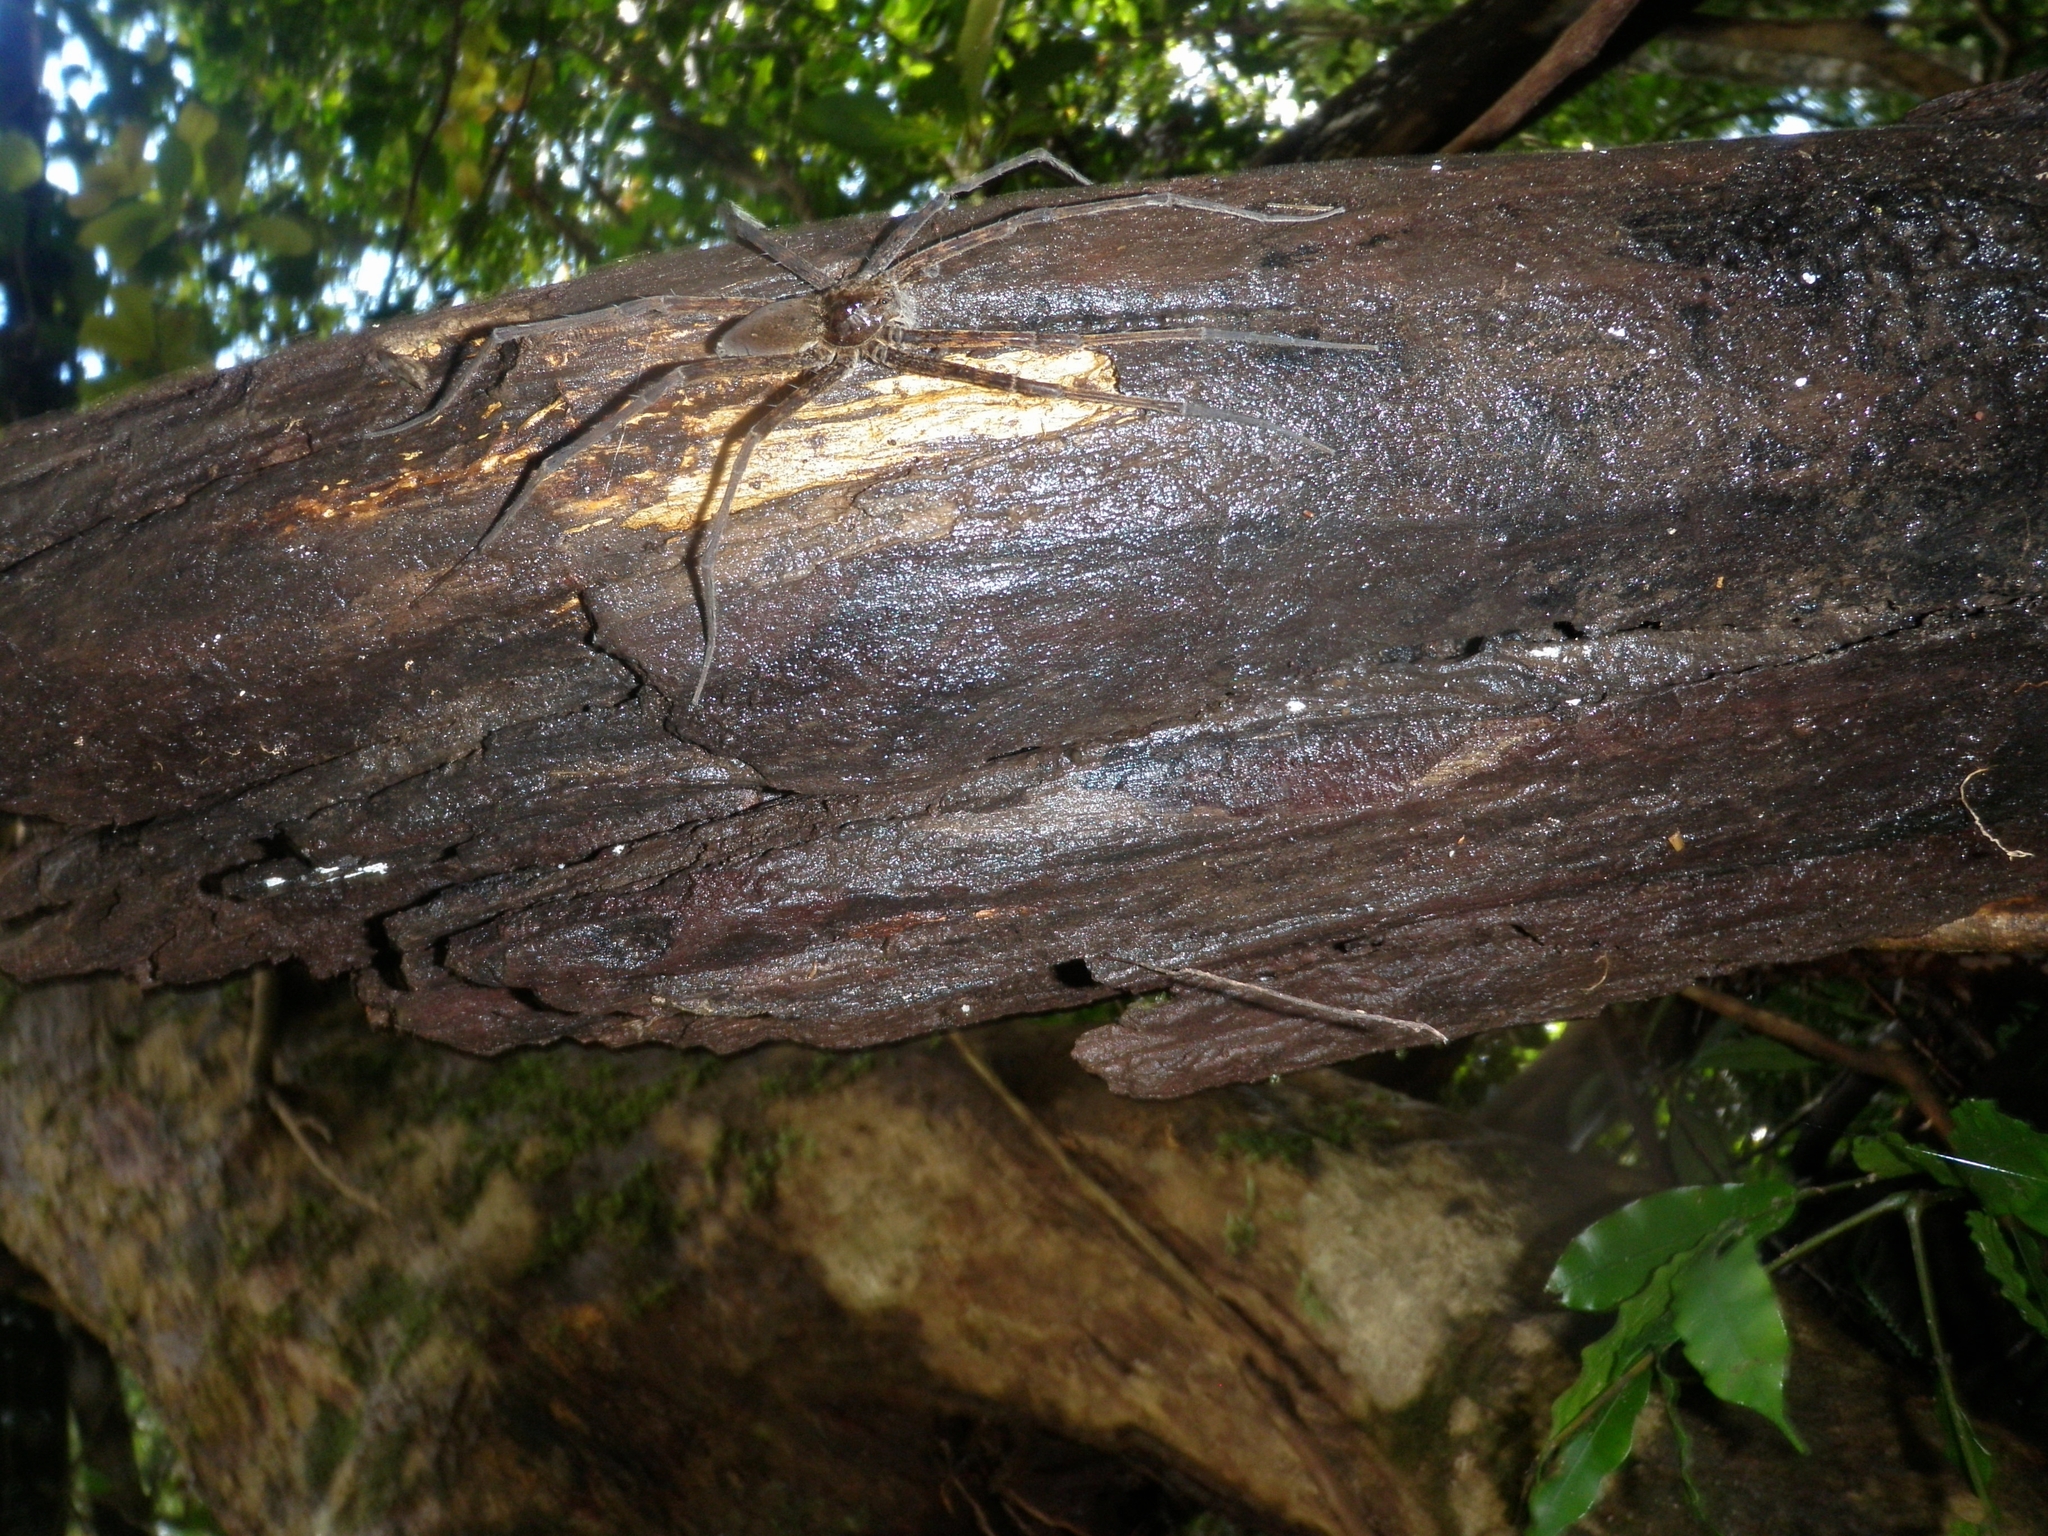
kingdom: Animalia
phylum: Arthropoda
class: Arachnida
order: Araneae
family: Pisauridae
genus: Megadolomedes
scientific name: Megadolomedes trux
